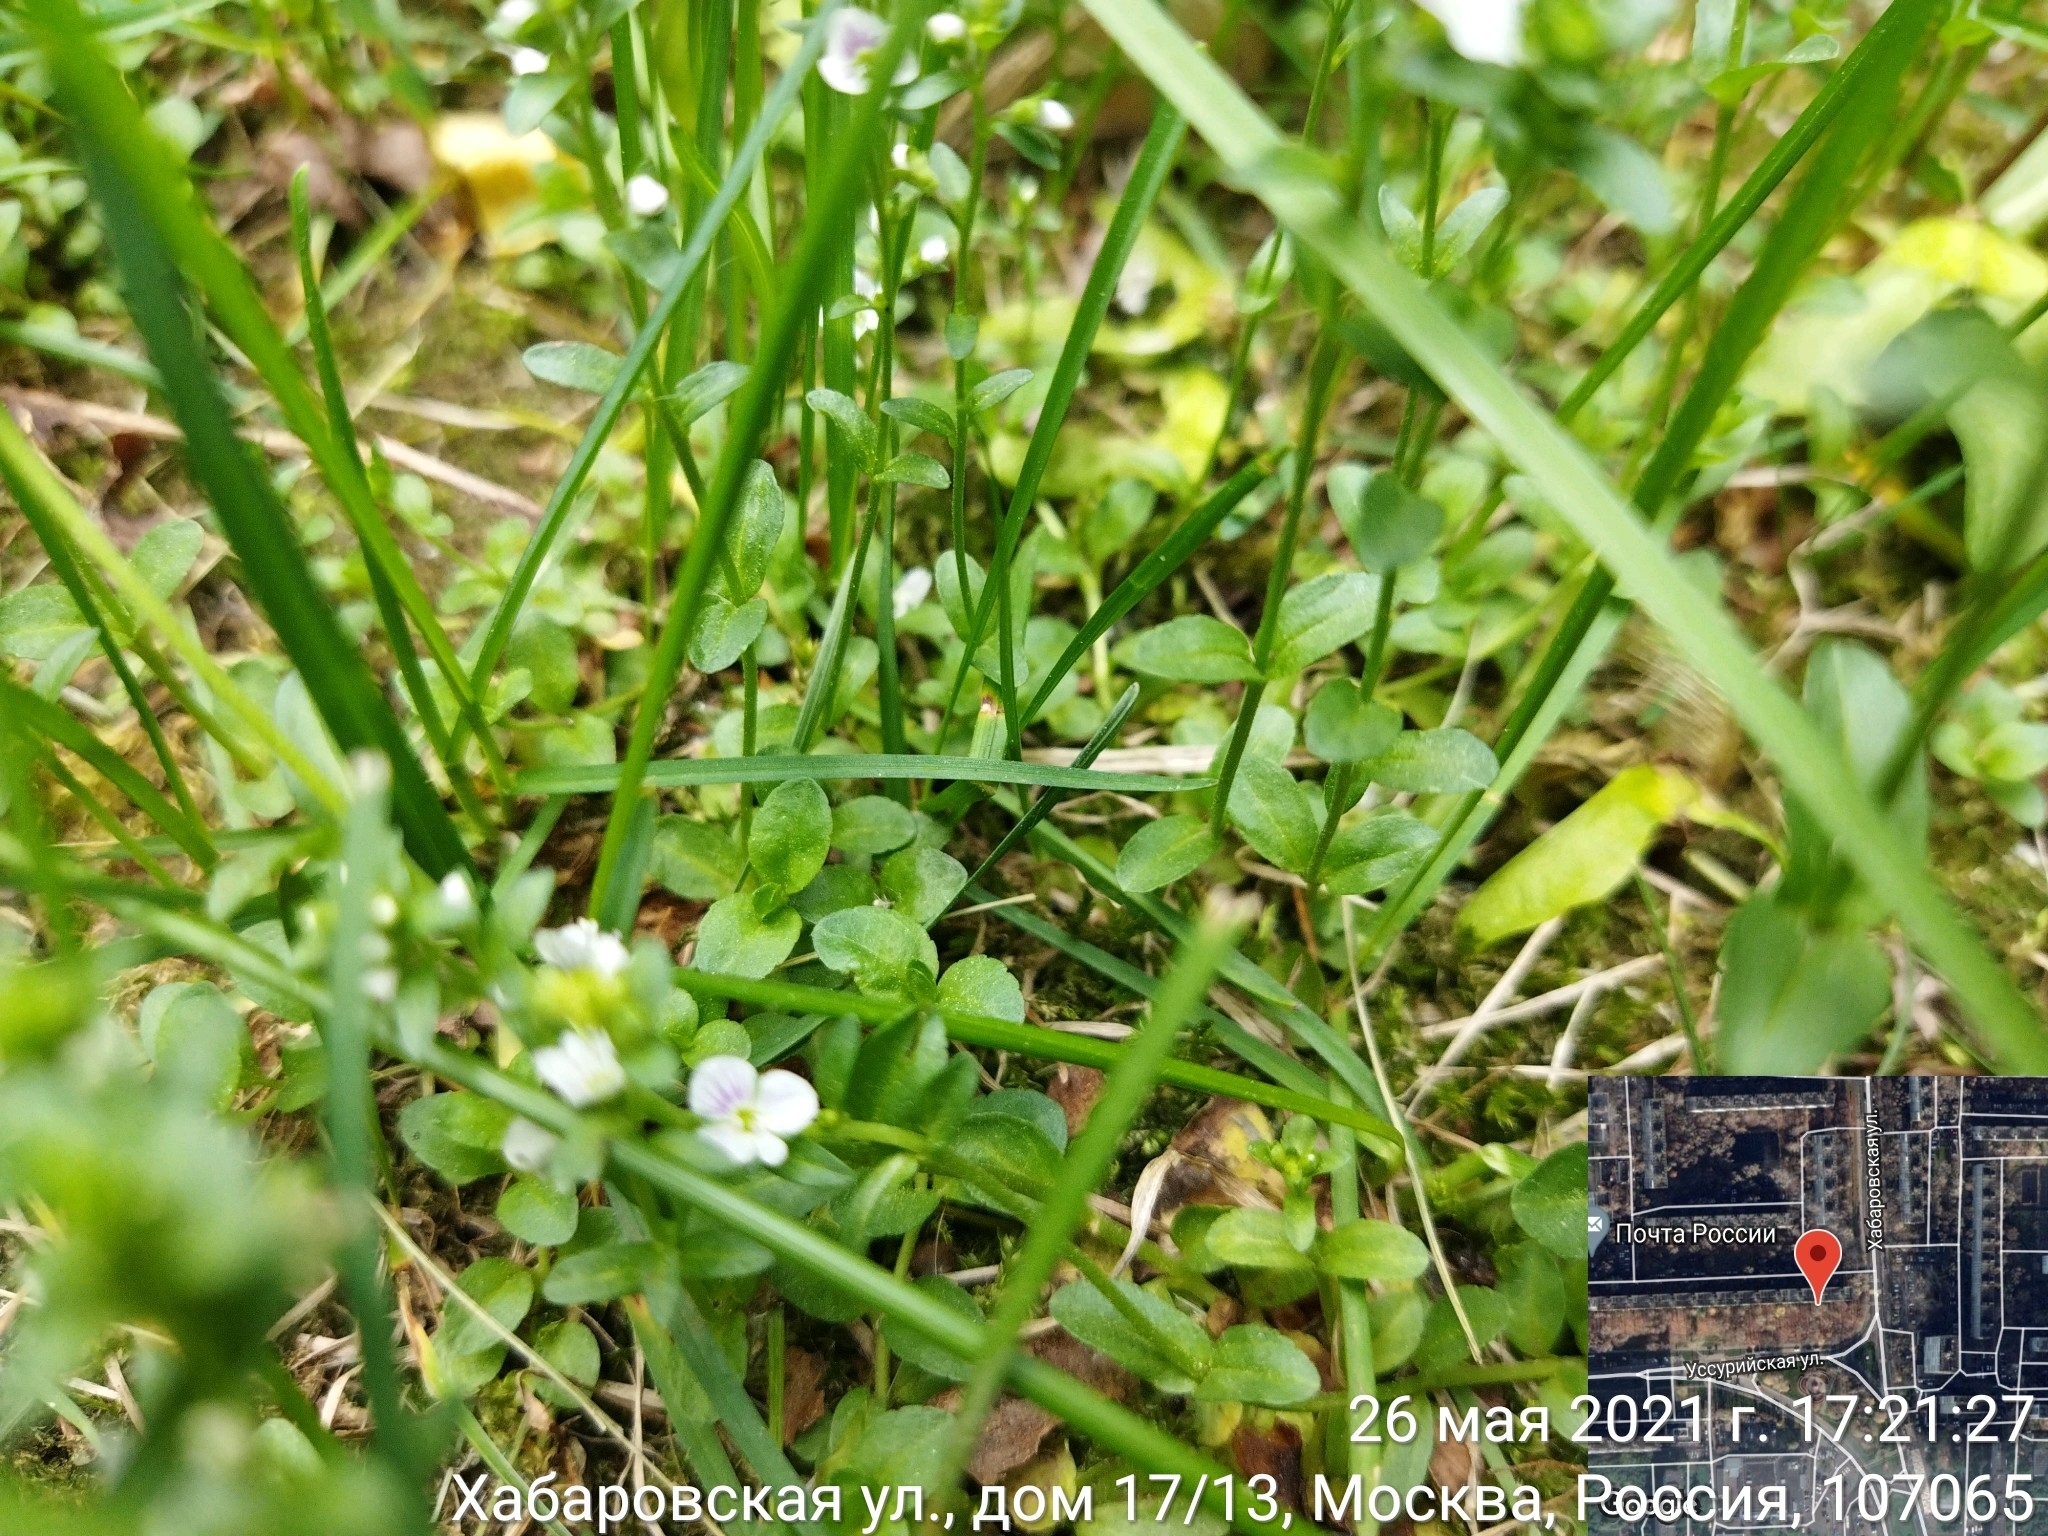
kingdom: Plantae
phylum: Tracheophyta
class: Magnoliopsida
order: Lamiales
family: Plantaginaceae
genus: Veronica
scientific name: Veronica serpyllifolia
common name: Thyme-leaved speedwell
